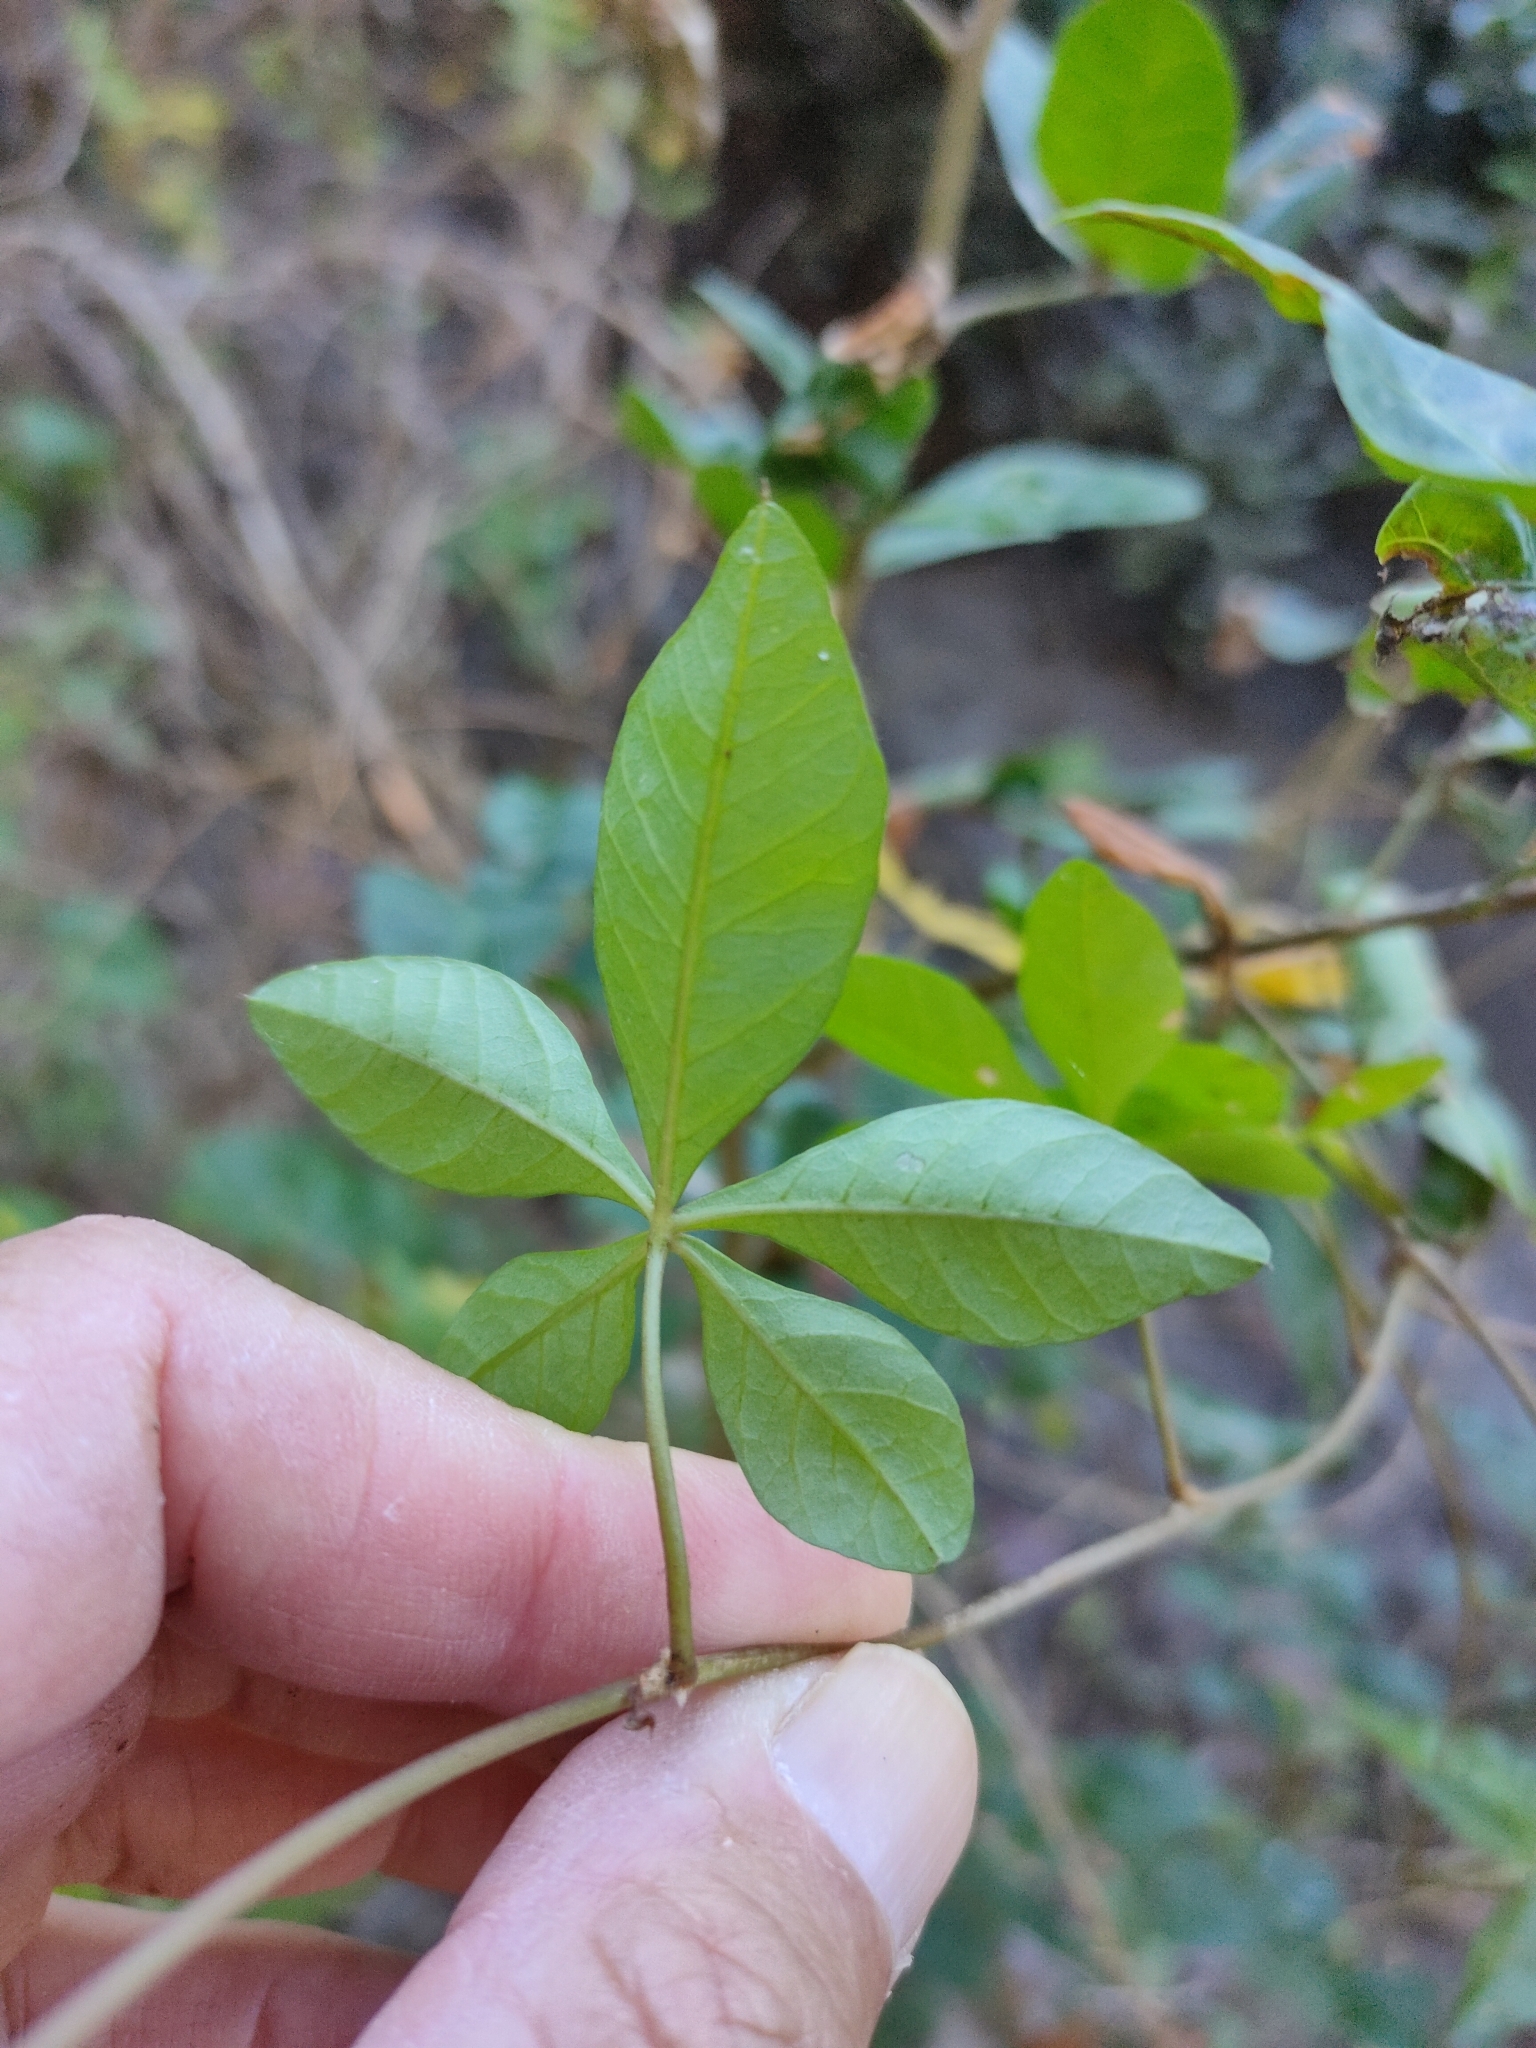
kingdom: Plantae
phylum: Tracheophyta
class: Magnoliopsida
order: Solanales
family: Convolvulaceae
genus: Ipomoea
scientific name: Ipomoea cairica
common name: Mile a minute vine
